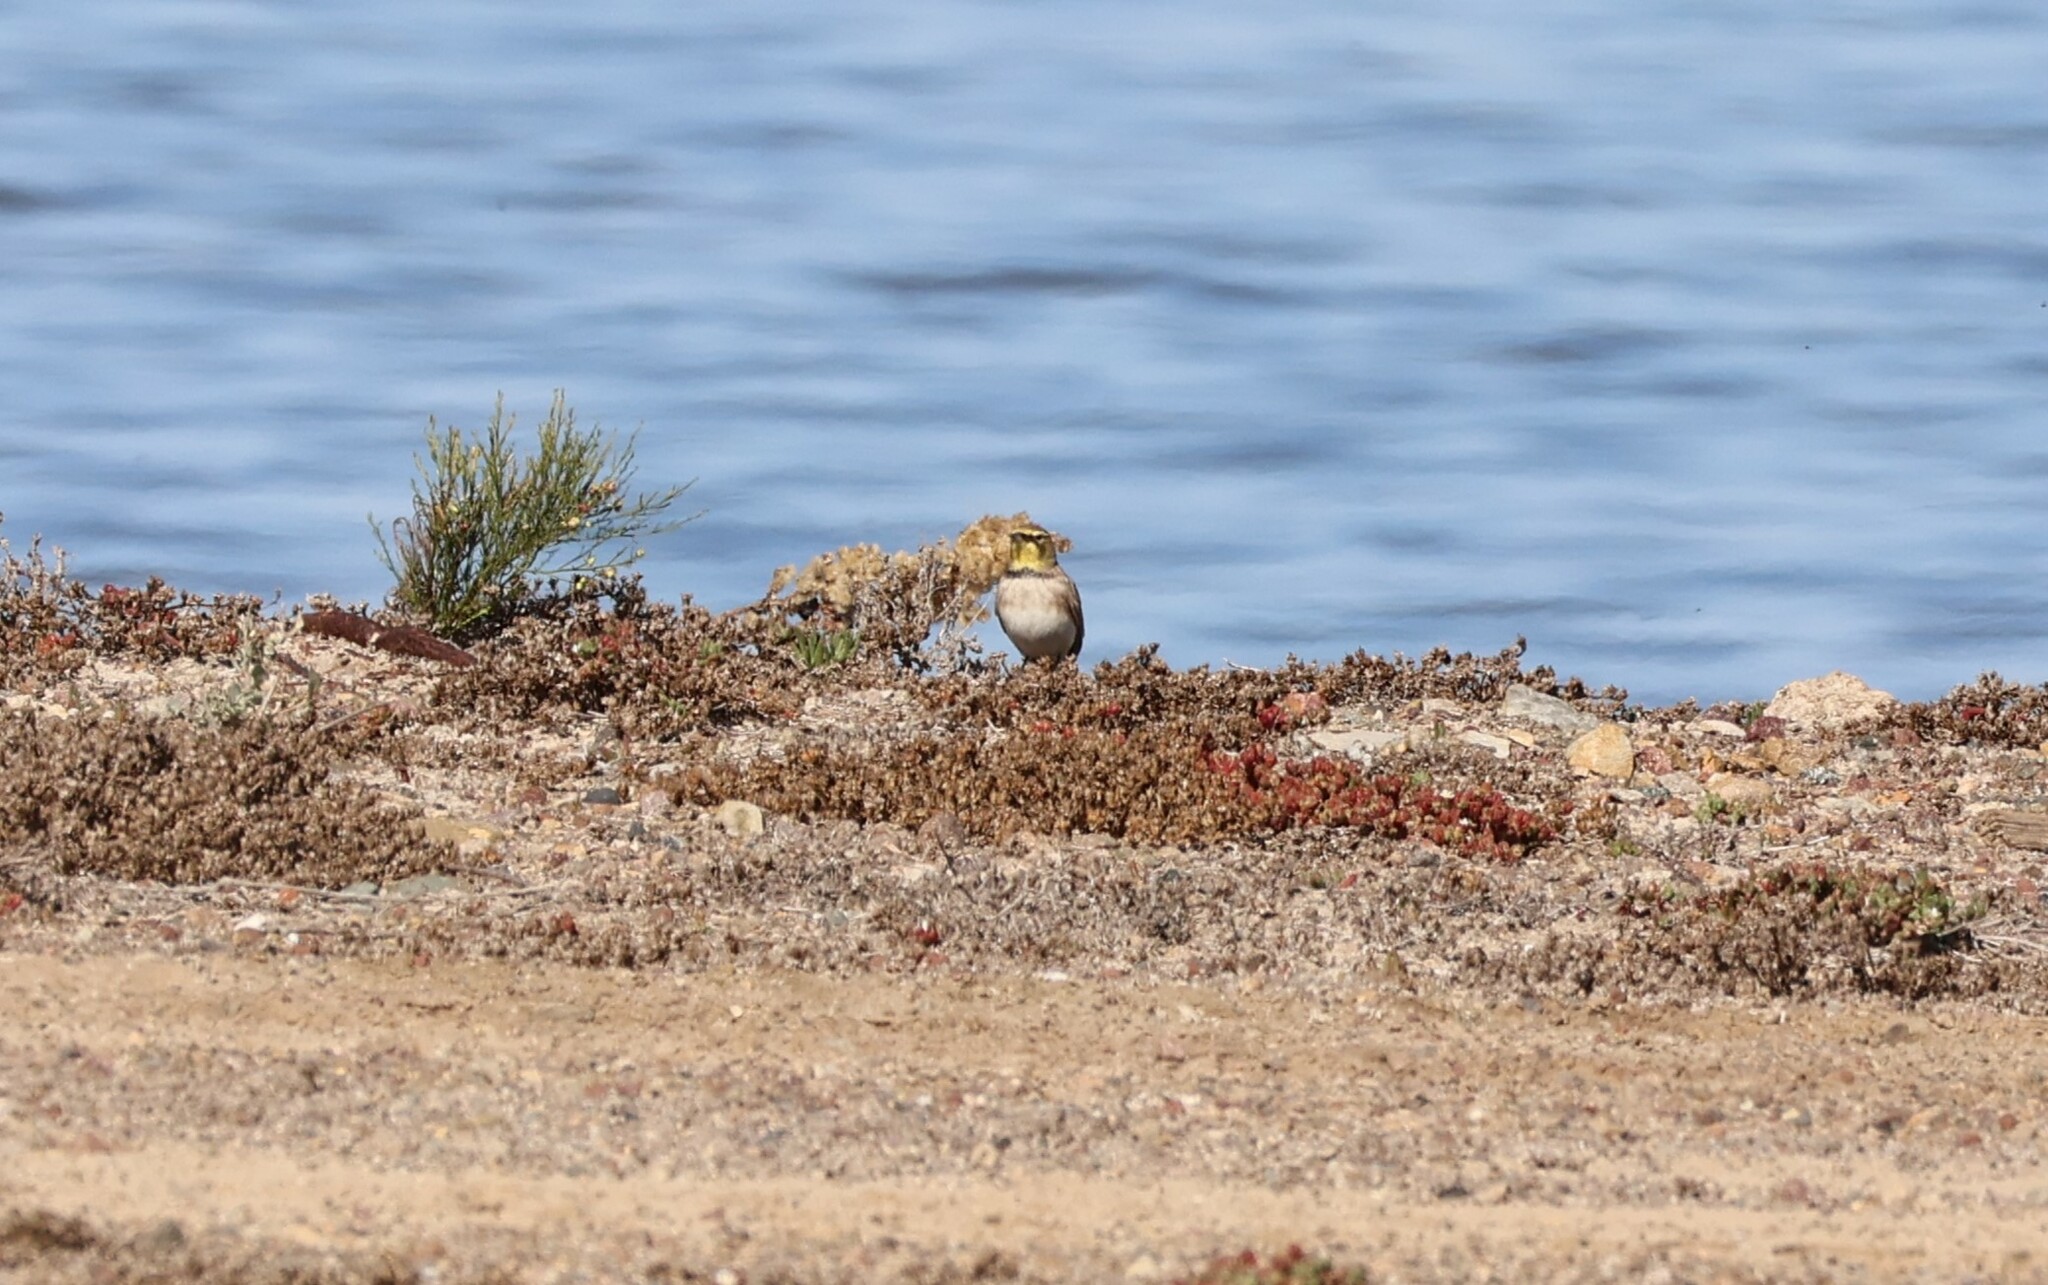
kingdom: Animalia
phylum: Chordata
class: Aves
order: Passeriformes
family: Alaudidae
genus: Eremophila
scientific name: Eremophila alpestris
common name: Horned lark
